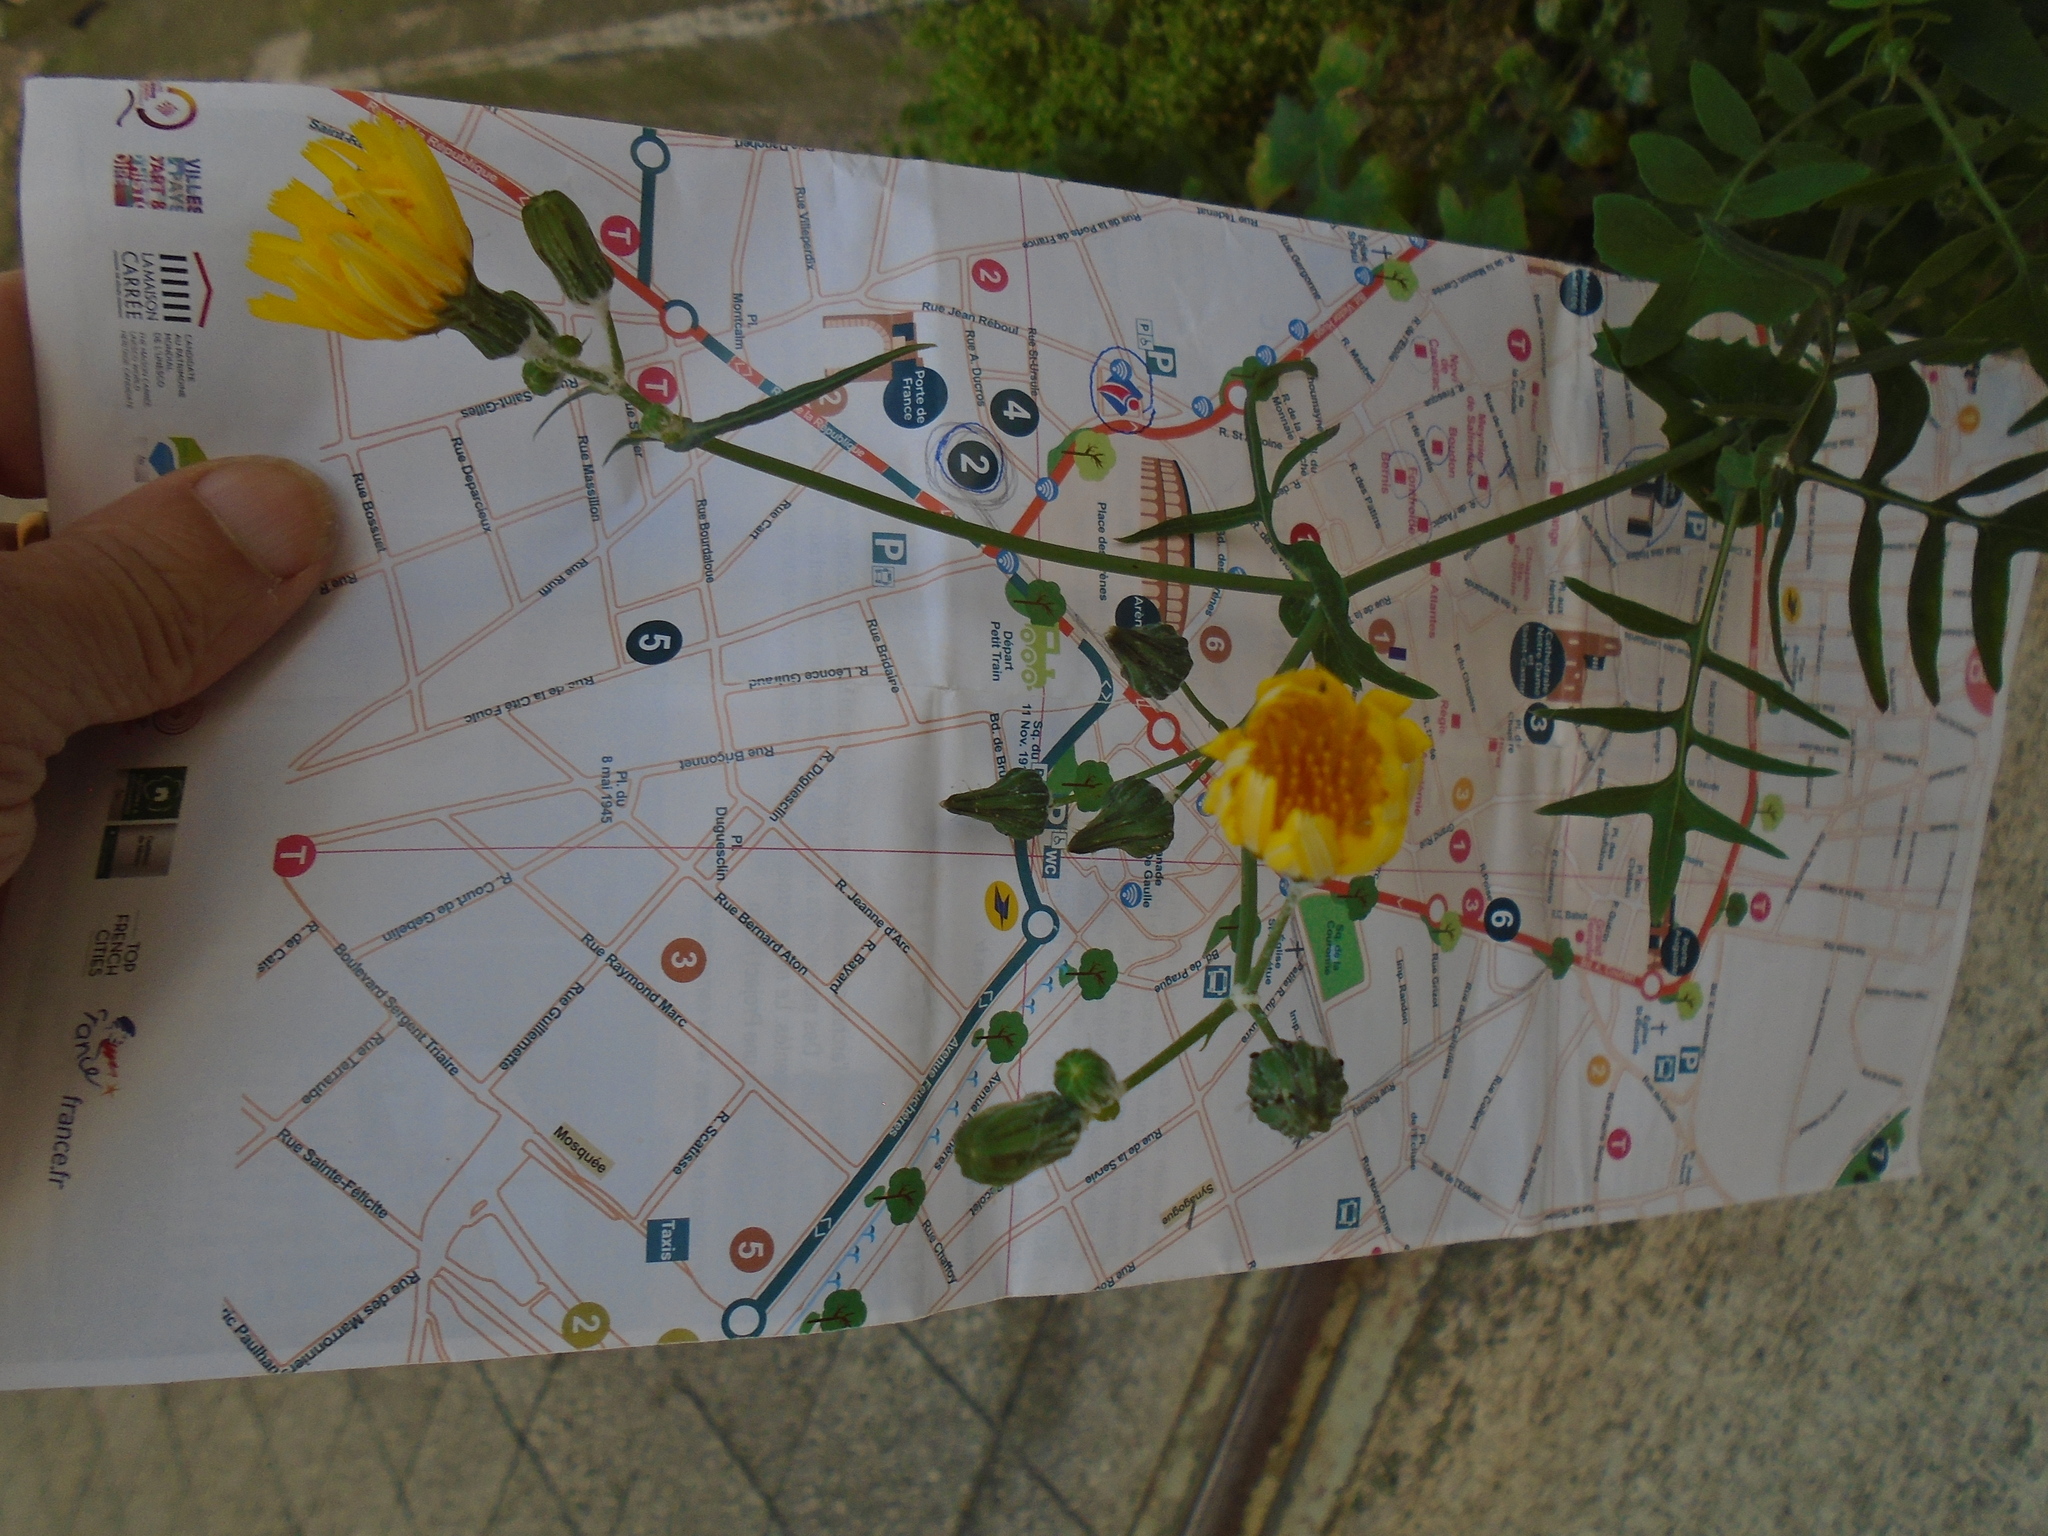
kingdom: Plantae
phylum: Tracheophyta
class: Magnoliopsida
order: Asterales
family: Asteraceae
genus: Sonchus
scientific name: Sonchus tenerrimus
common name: Clammy sowthistle
